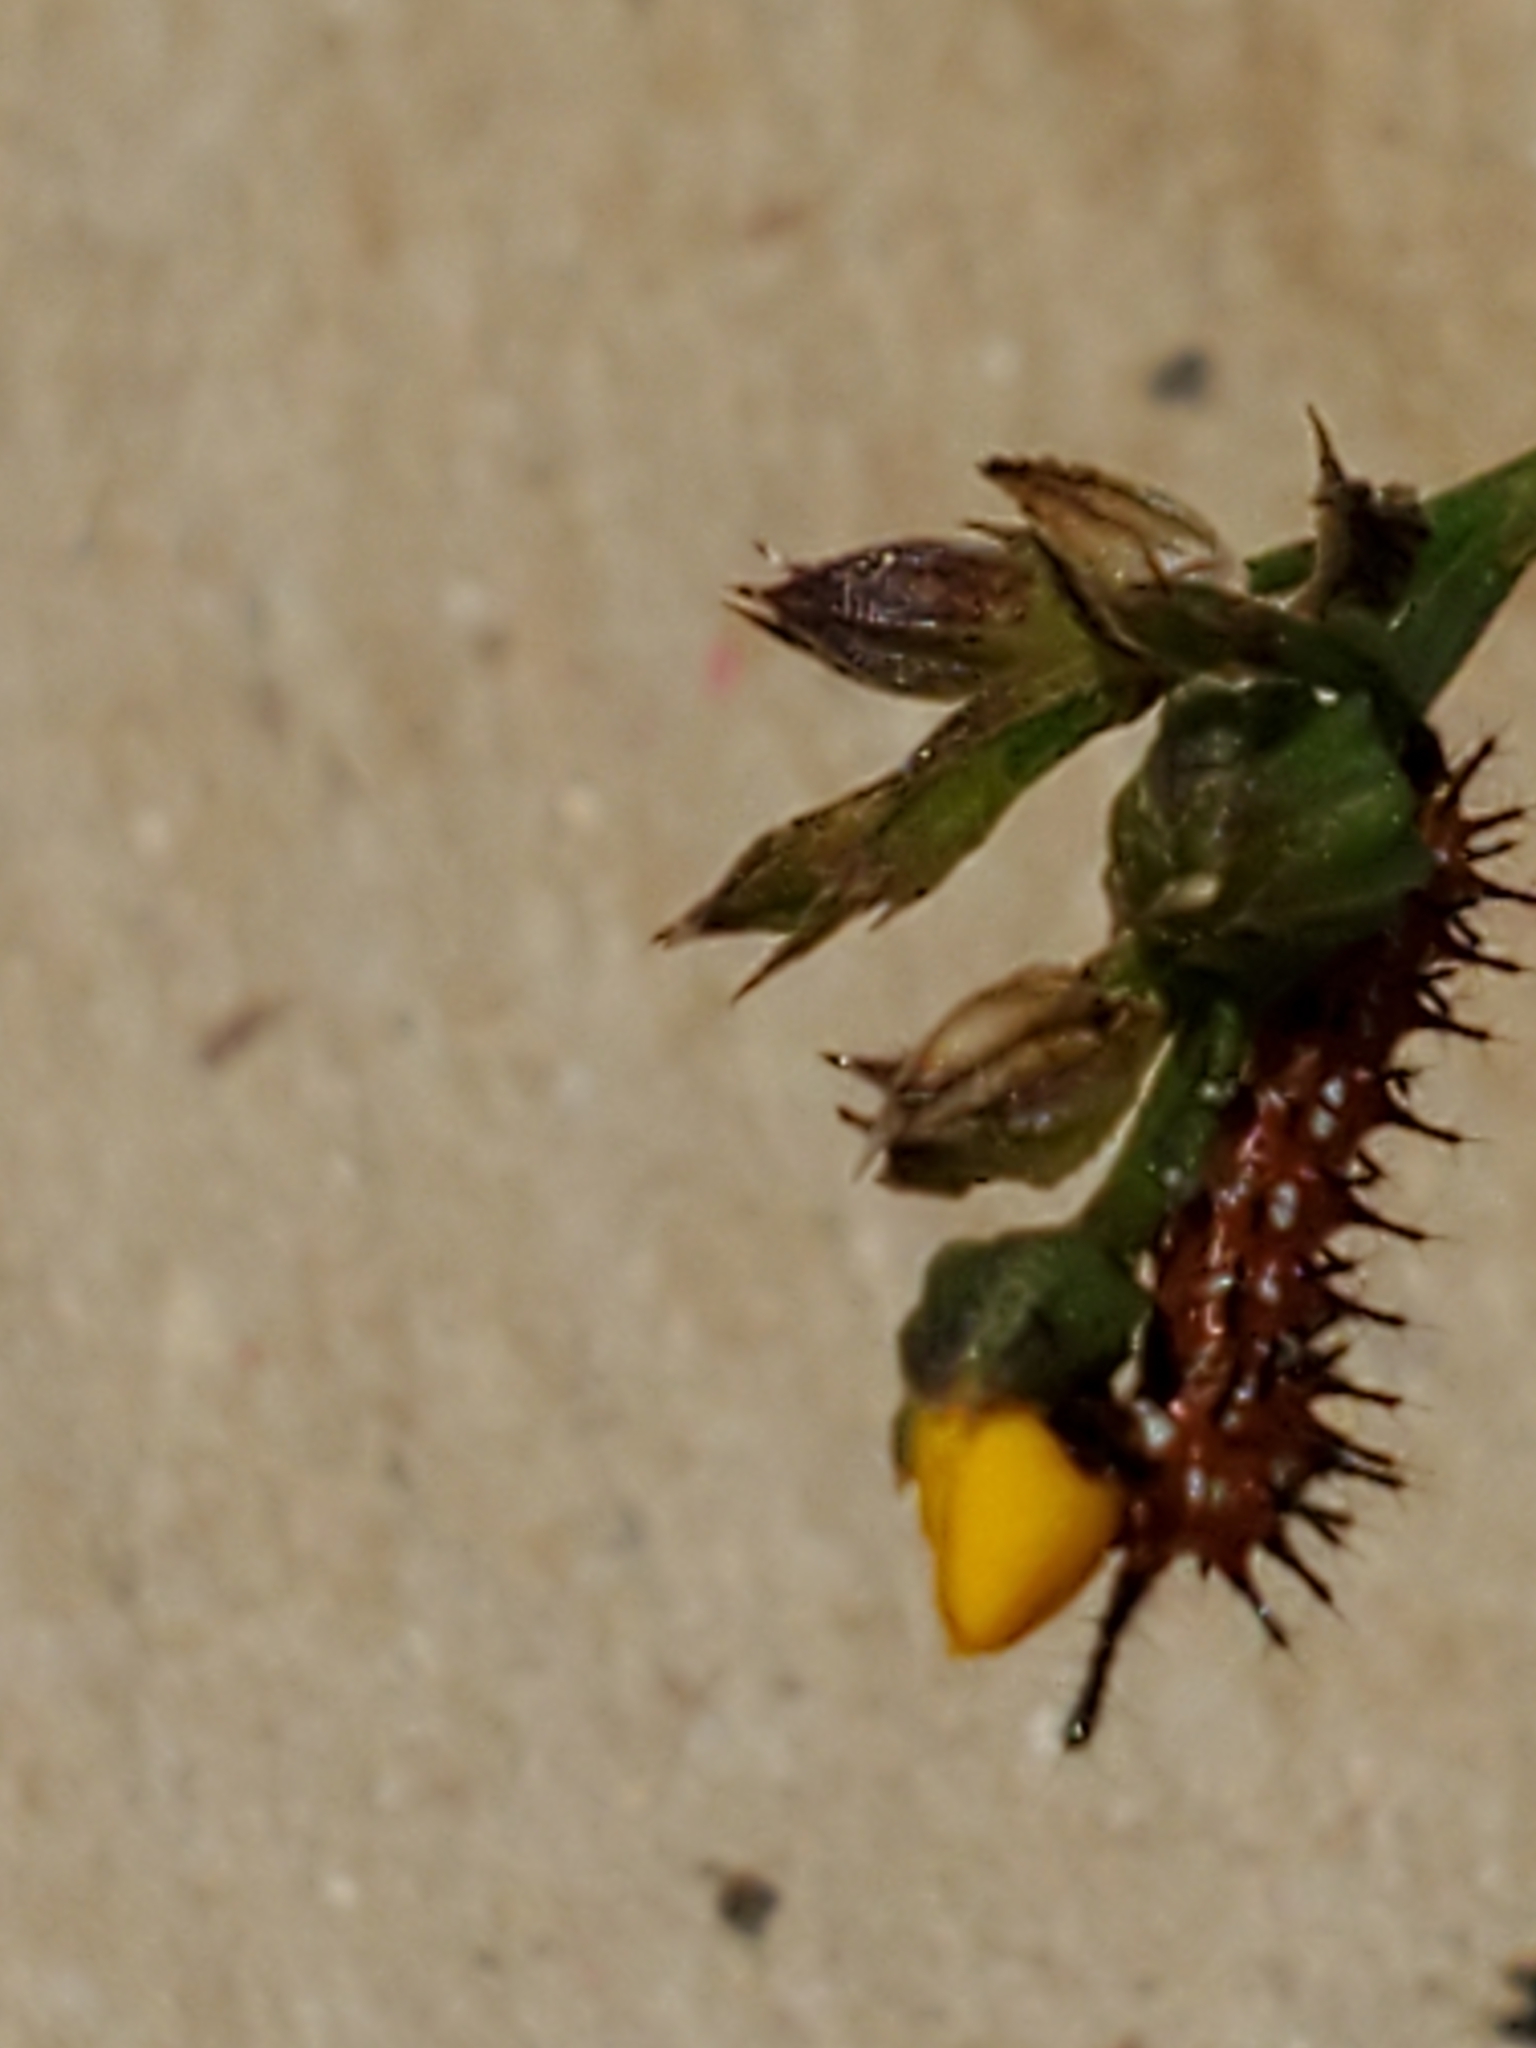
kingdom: Animalia
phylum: Arthropoda
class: Insecta
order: Lepidoptera
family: Nymphalidae
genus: Euptoieta
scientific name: Euptoieta claudia
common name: Variegated fritillary
